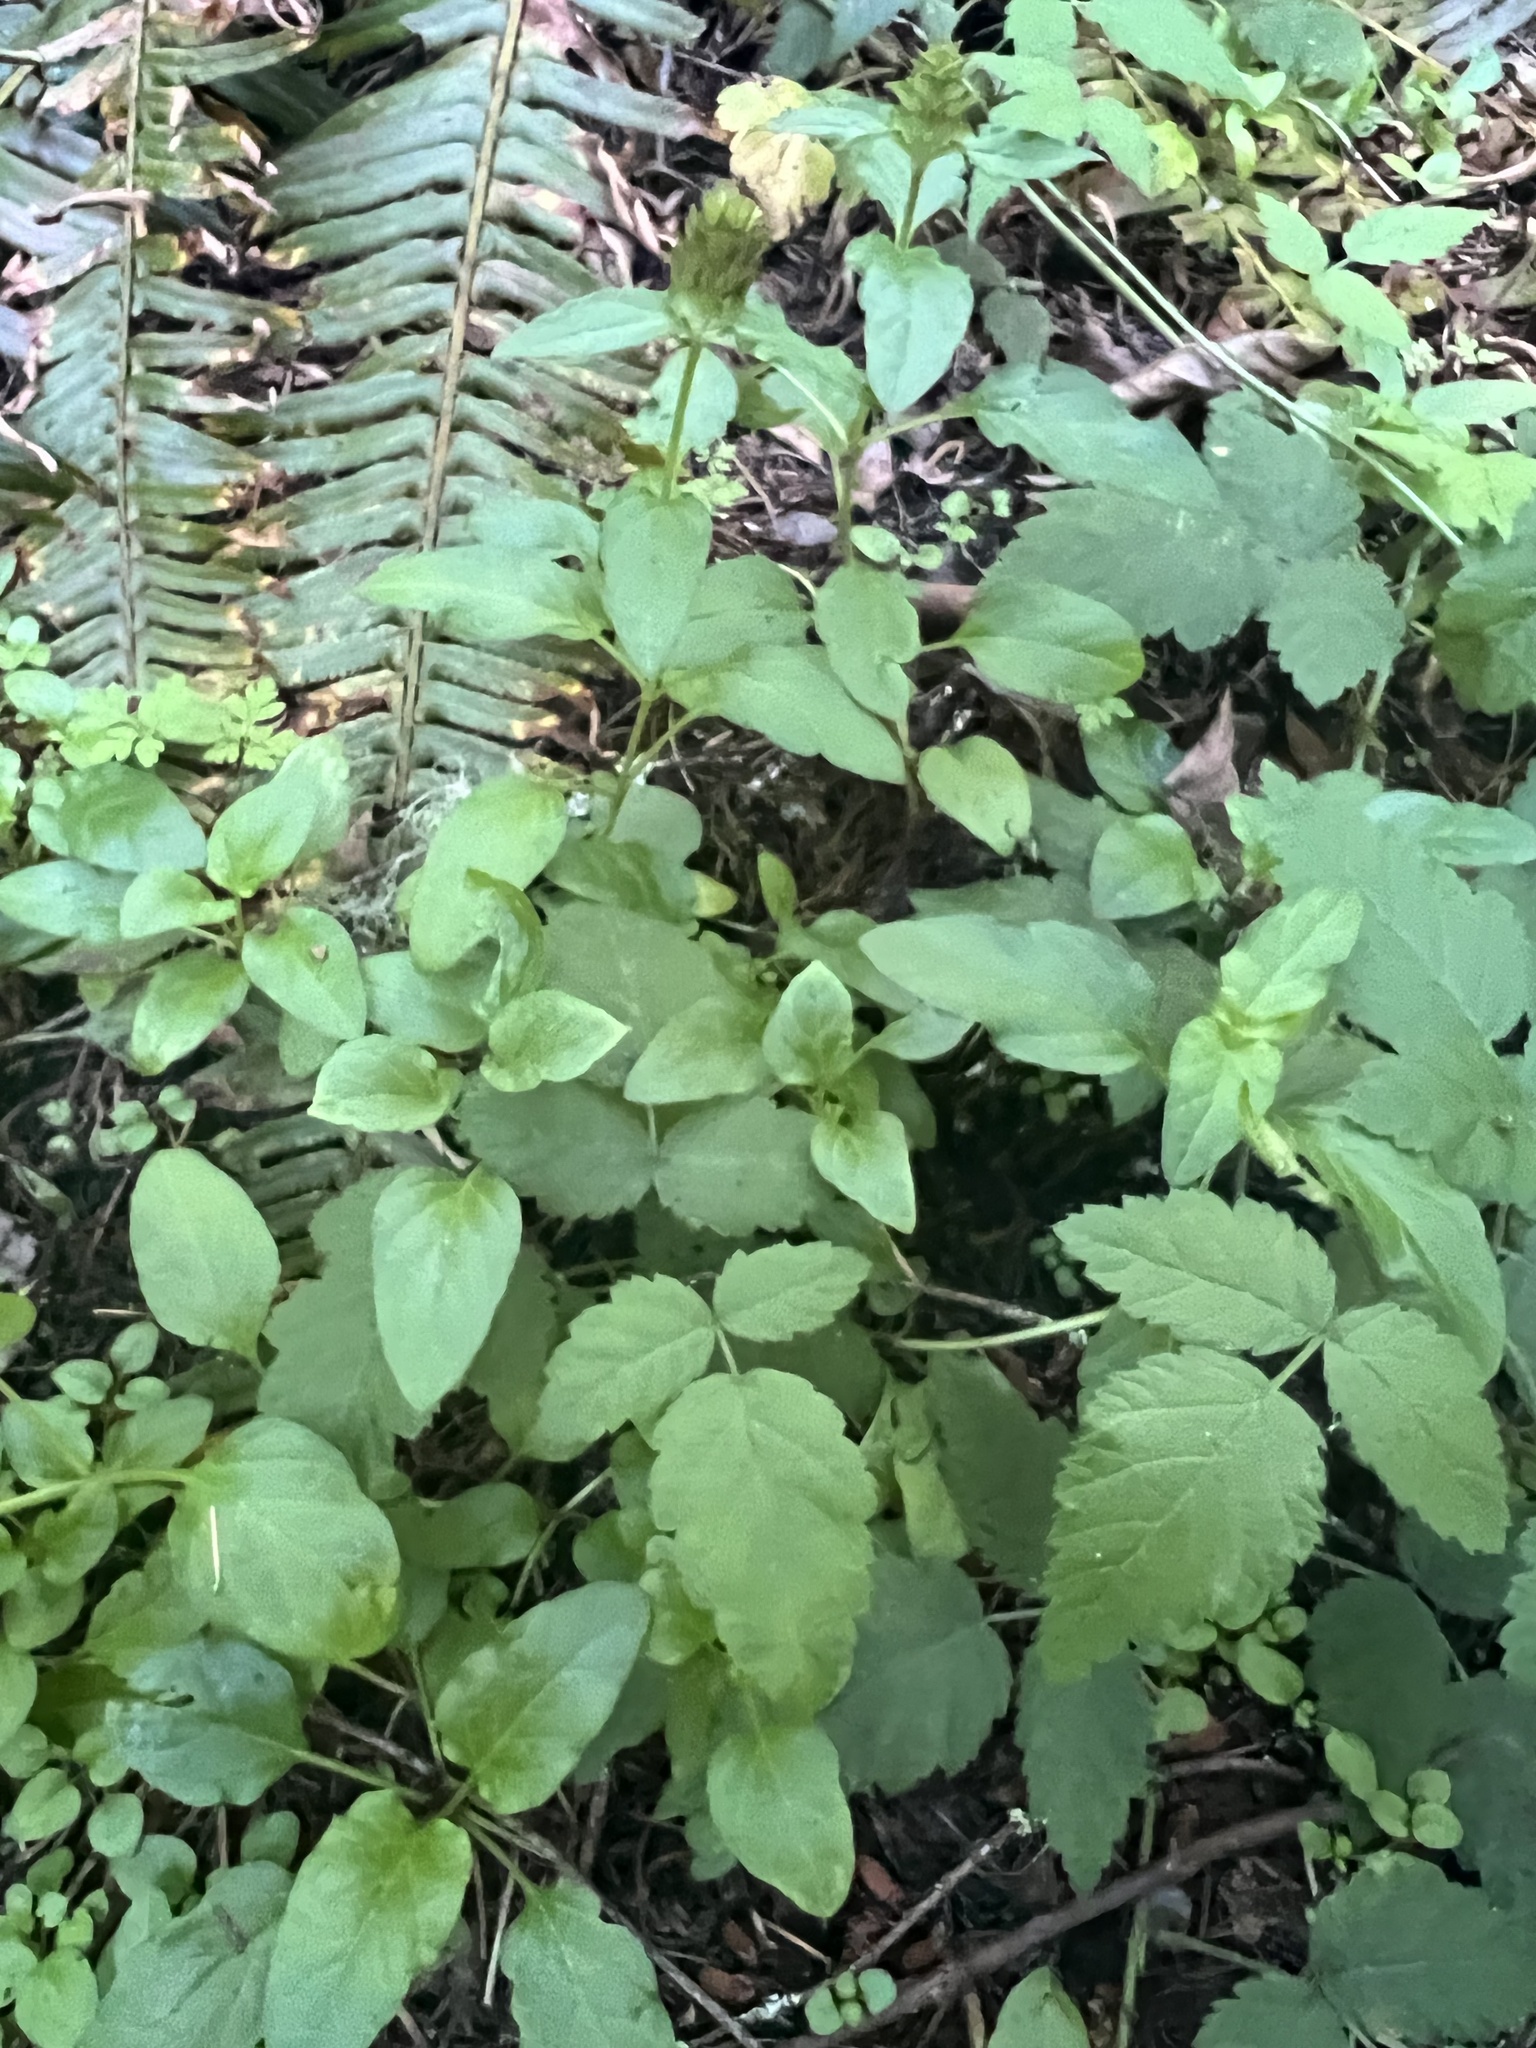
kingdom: Plantae
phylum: Tracheophyta
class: Magnoliopsida
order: Lamiales
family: Lamiaceae
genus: Prunella
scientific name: Prunella vulgaris
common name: Heal-all
